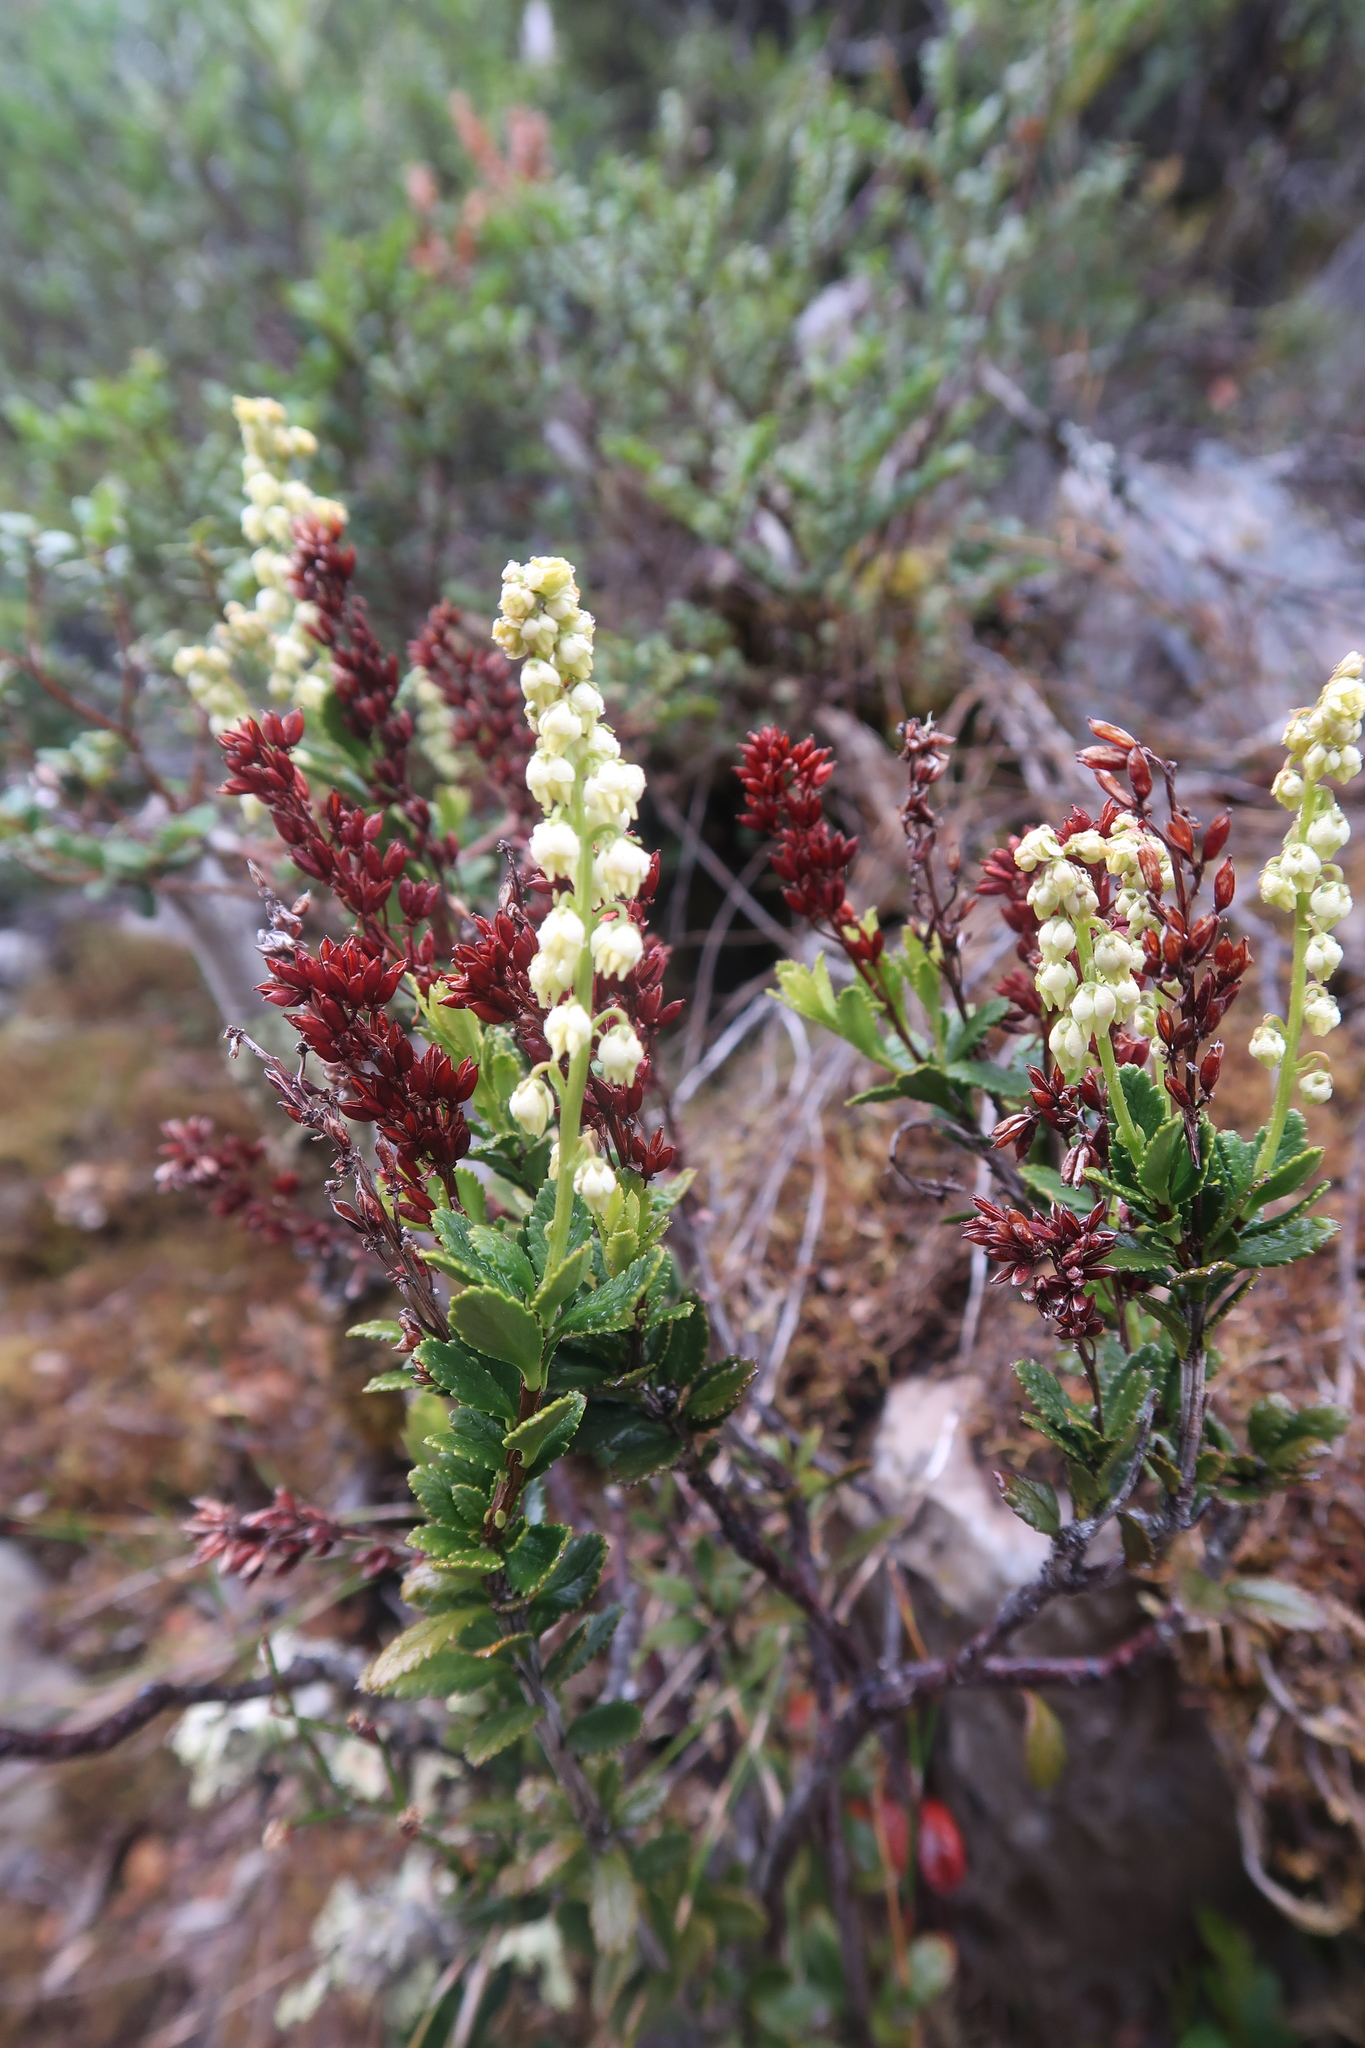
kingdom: Plantae
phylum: Tracheophyta
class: Magnoliopsida
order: Saxifragales
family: Tetracarpaeaceae
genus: Tetracarpaea
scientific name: Tetracarpaea tasmanica
